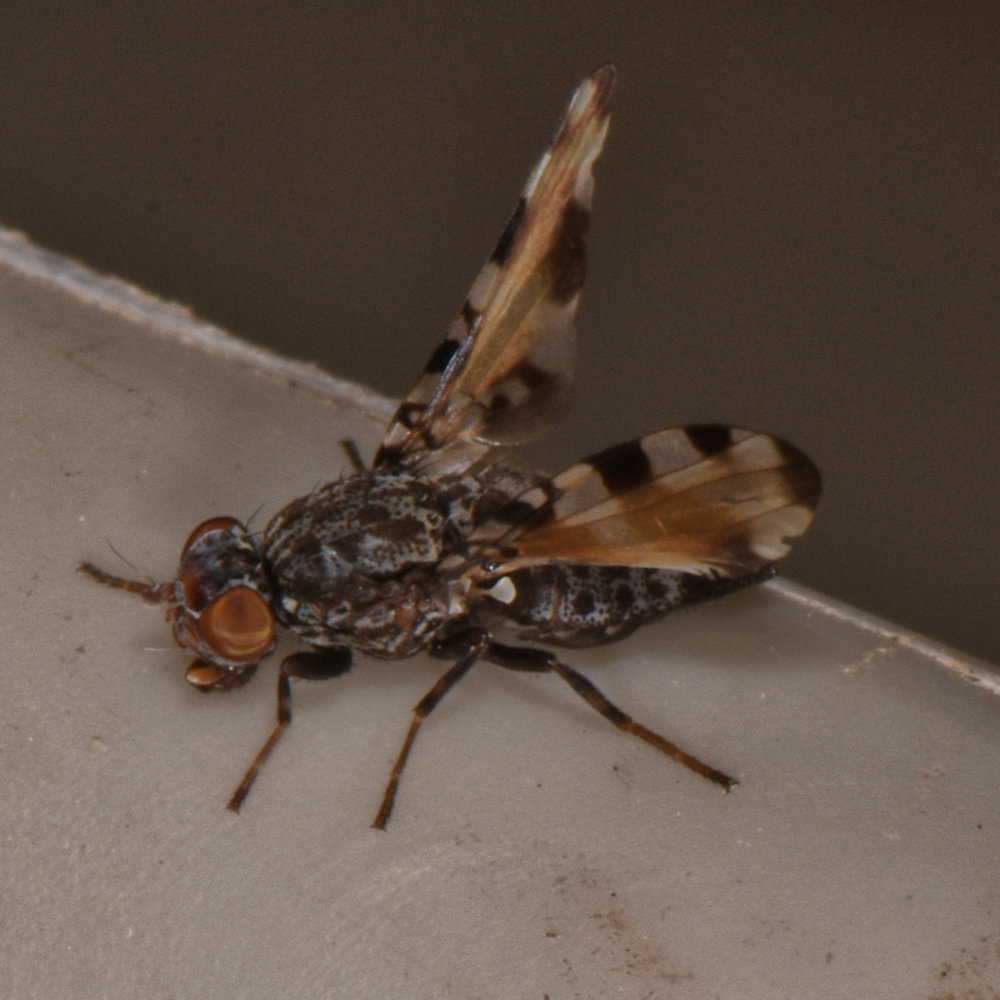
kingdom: Animalia
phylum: Arthropoda
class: Insecta
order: Diptera
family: Ulidiidae
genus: Pseudotephritis
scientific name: Pseudotephritis vau
